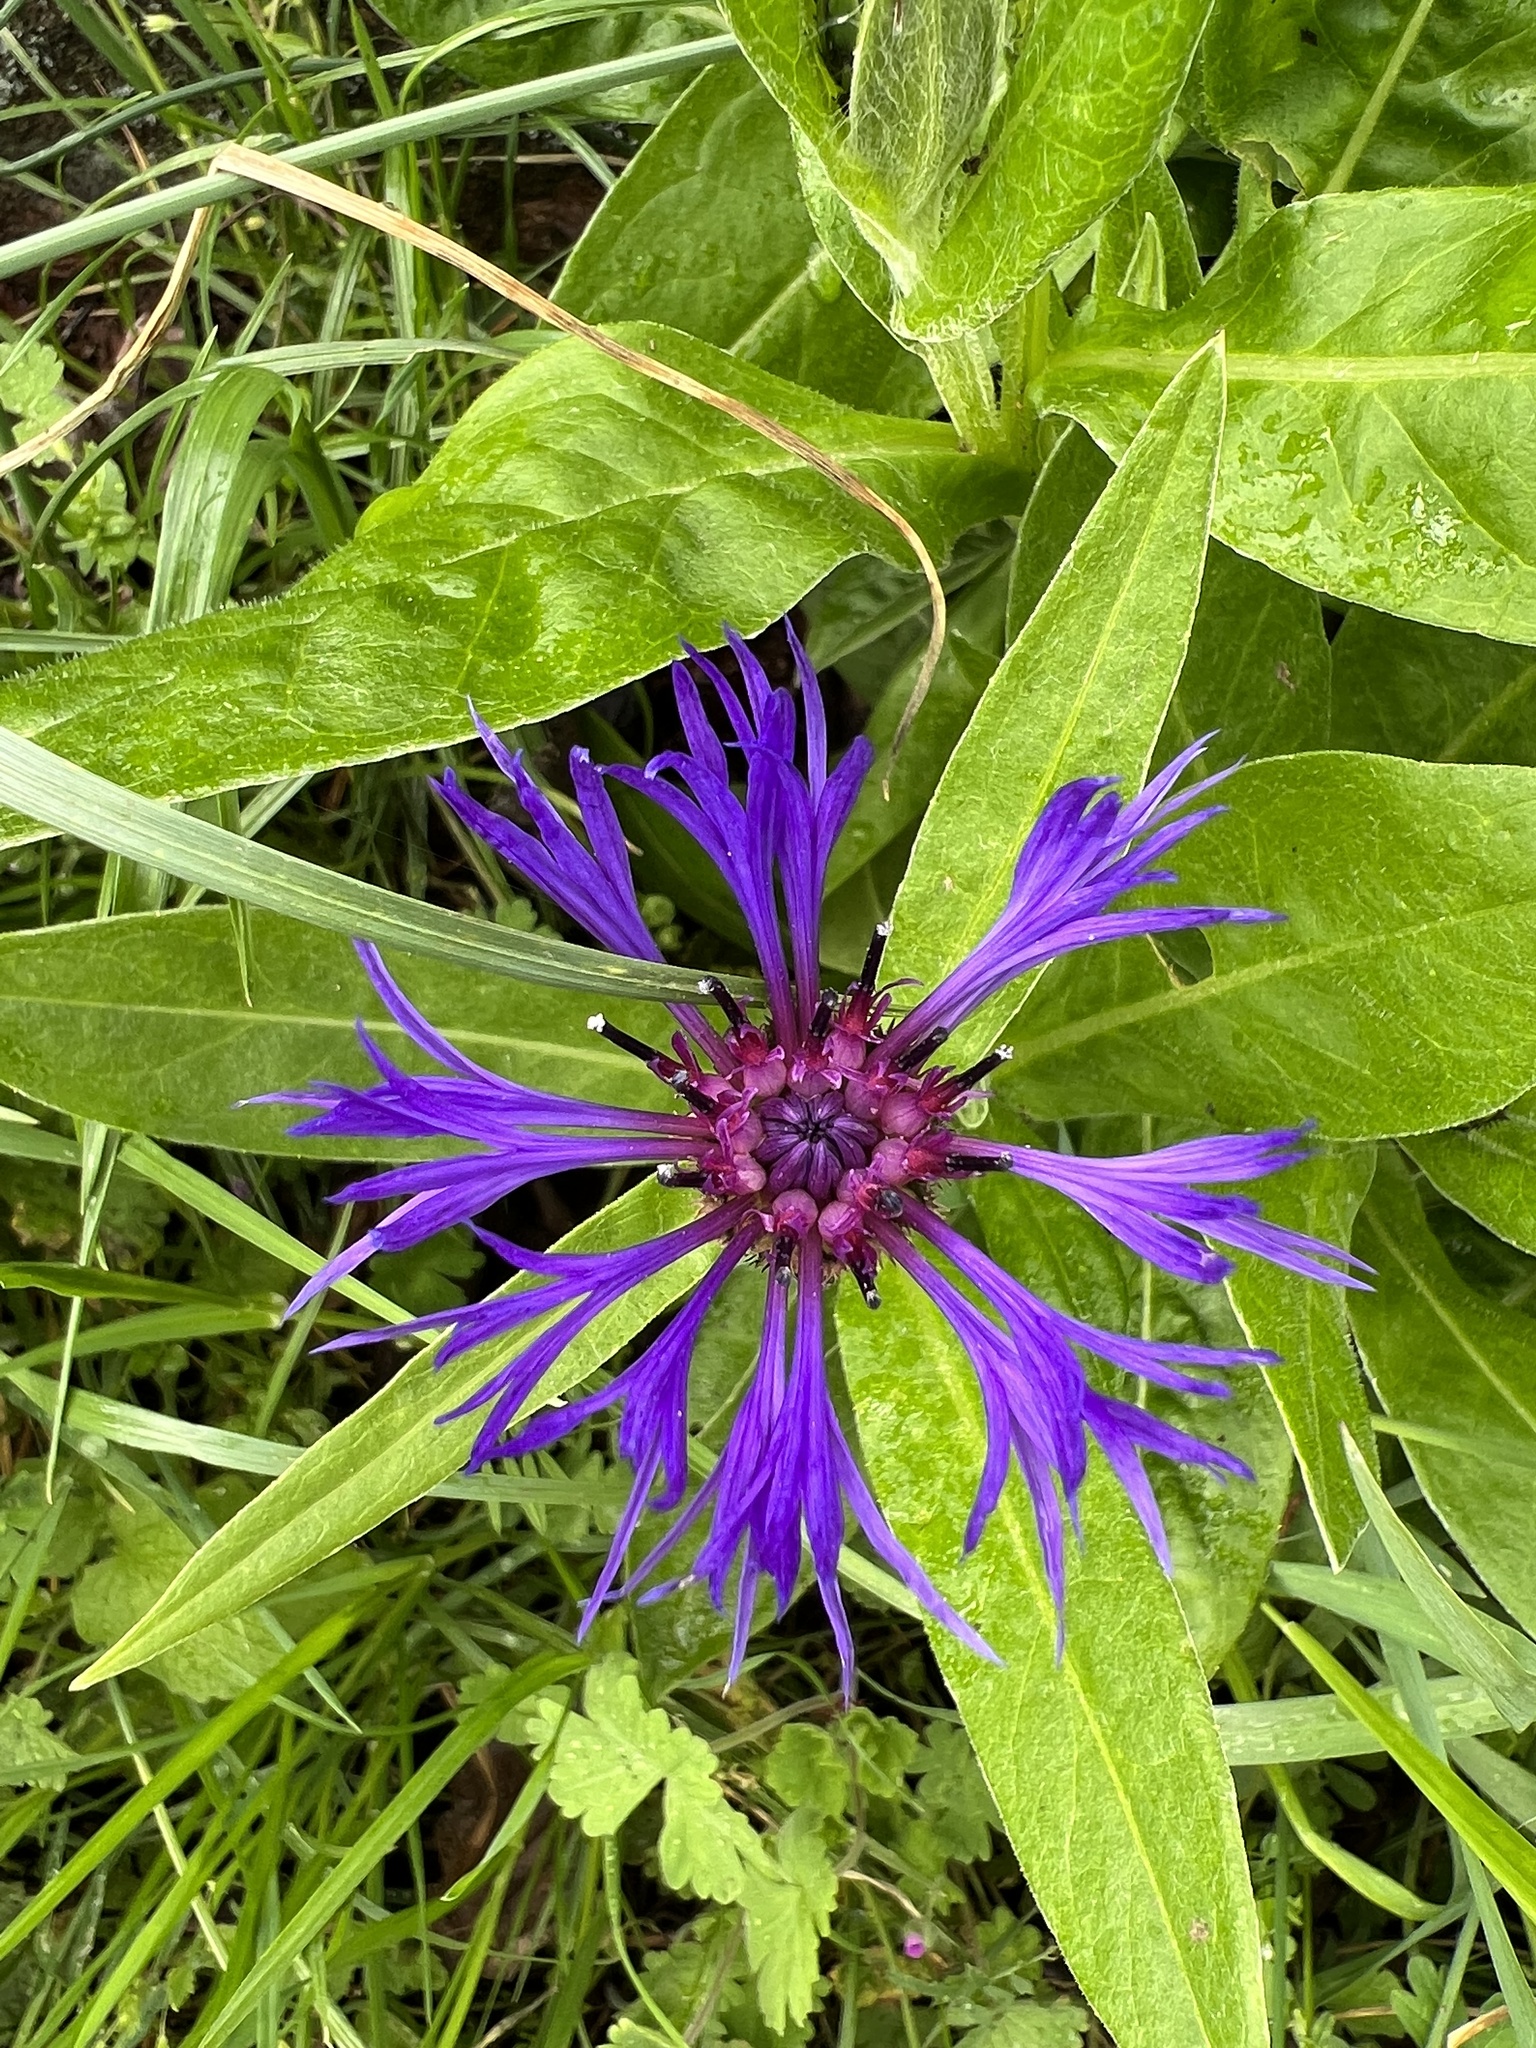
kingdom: Plantae
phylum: Tracheophyta
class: Magnoliopsida
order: Asterales
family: Asteraceae
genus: Centaurea
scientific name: Centaurea montana
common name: Perennial cornflower
